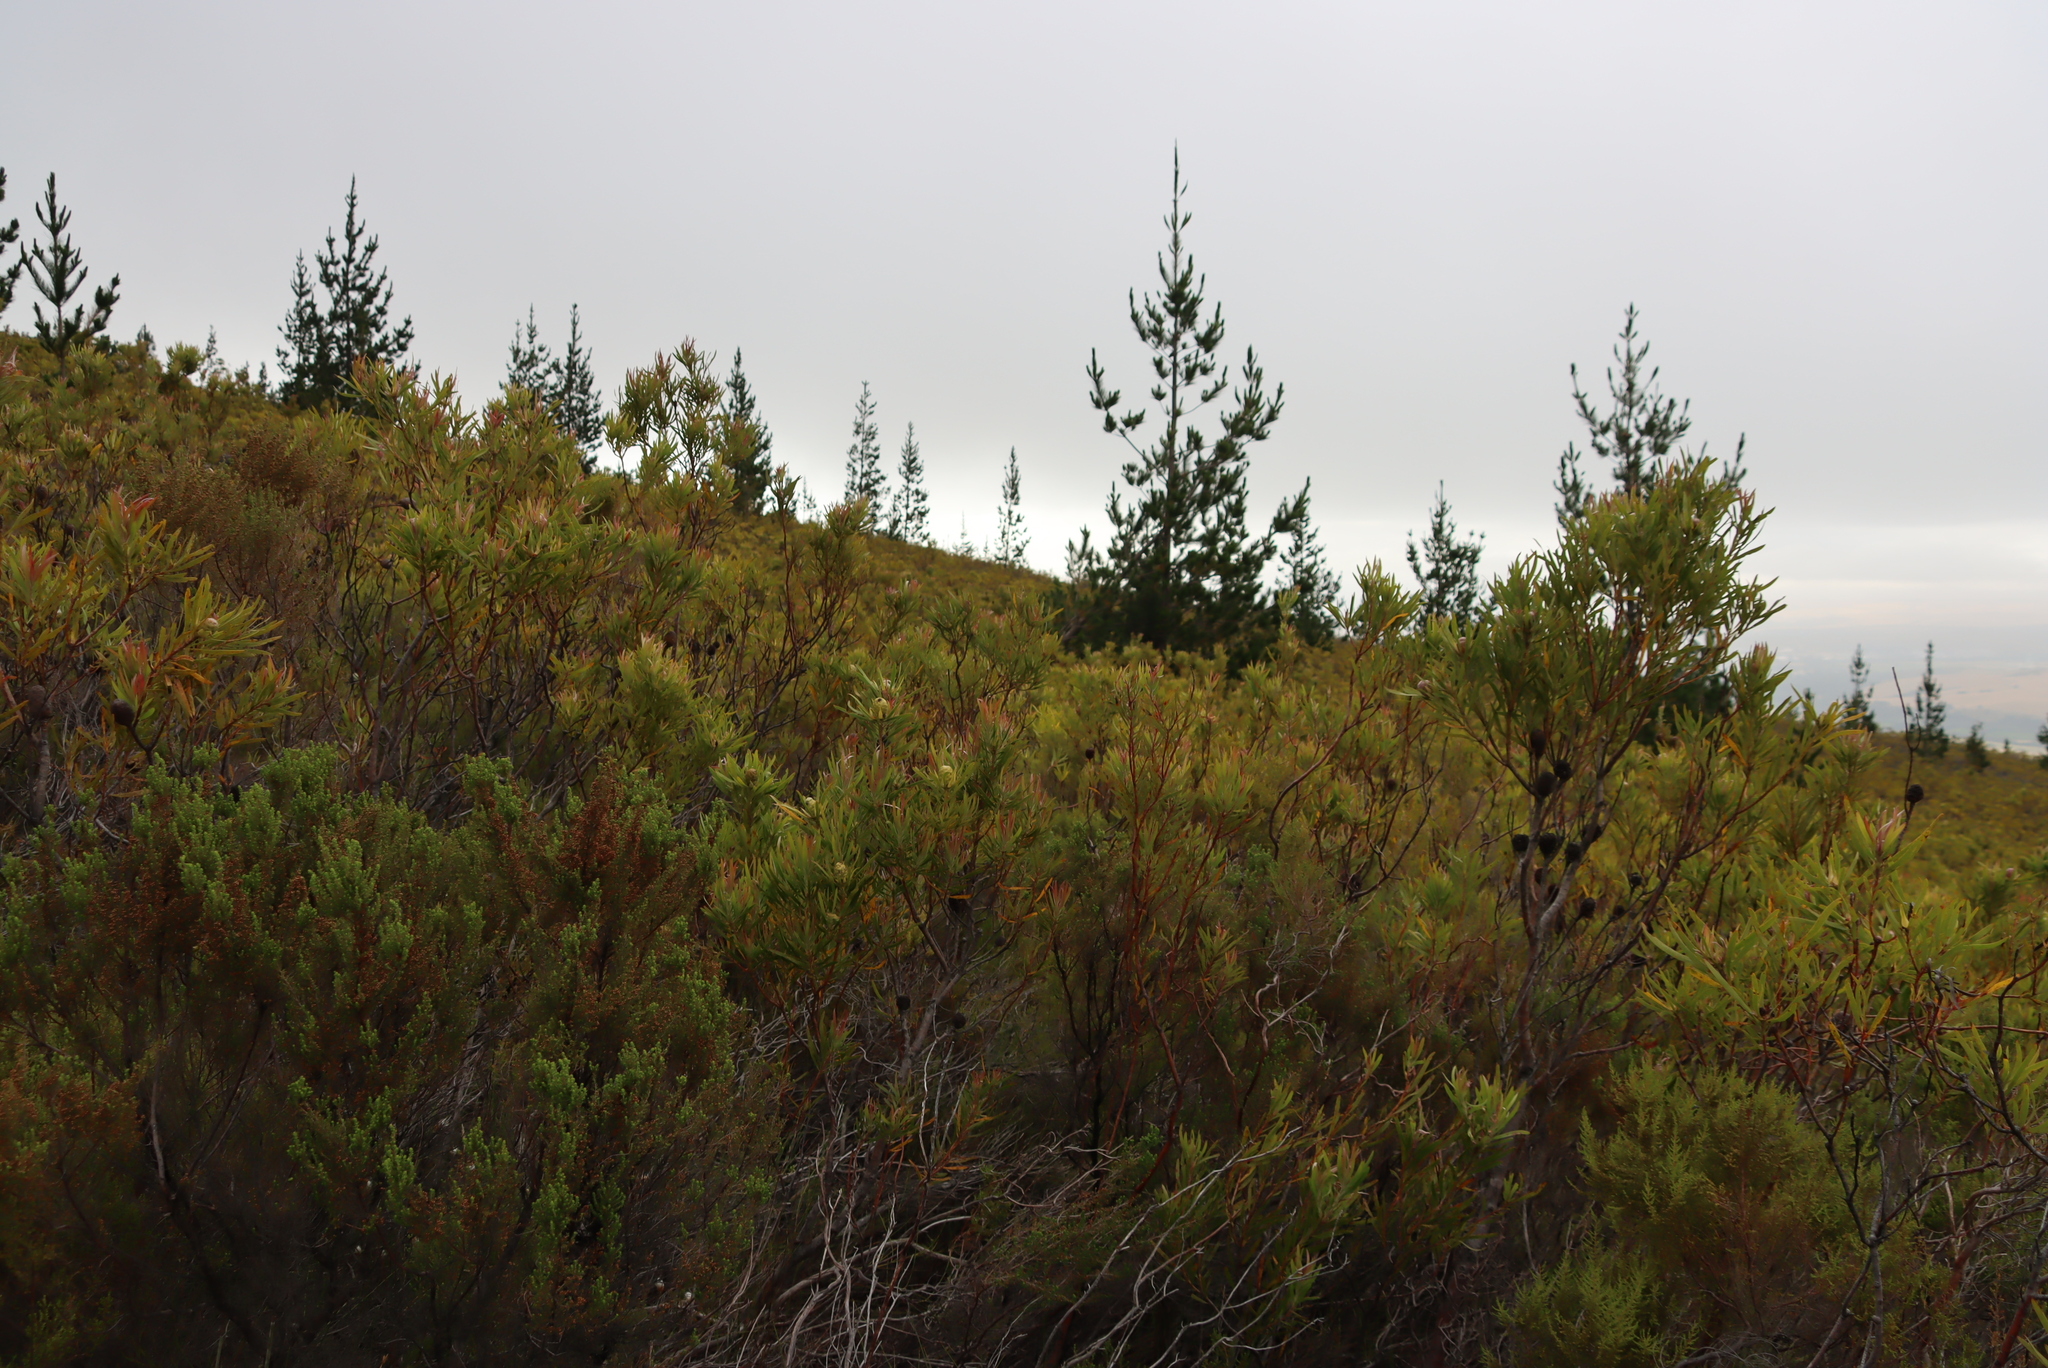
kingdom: Plantae
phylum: Tracheophyta
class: Pinopsida
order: Pinales
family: Pinaceae
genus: Pinus
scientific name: Pinus radiata
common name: Monterey pine
